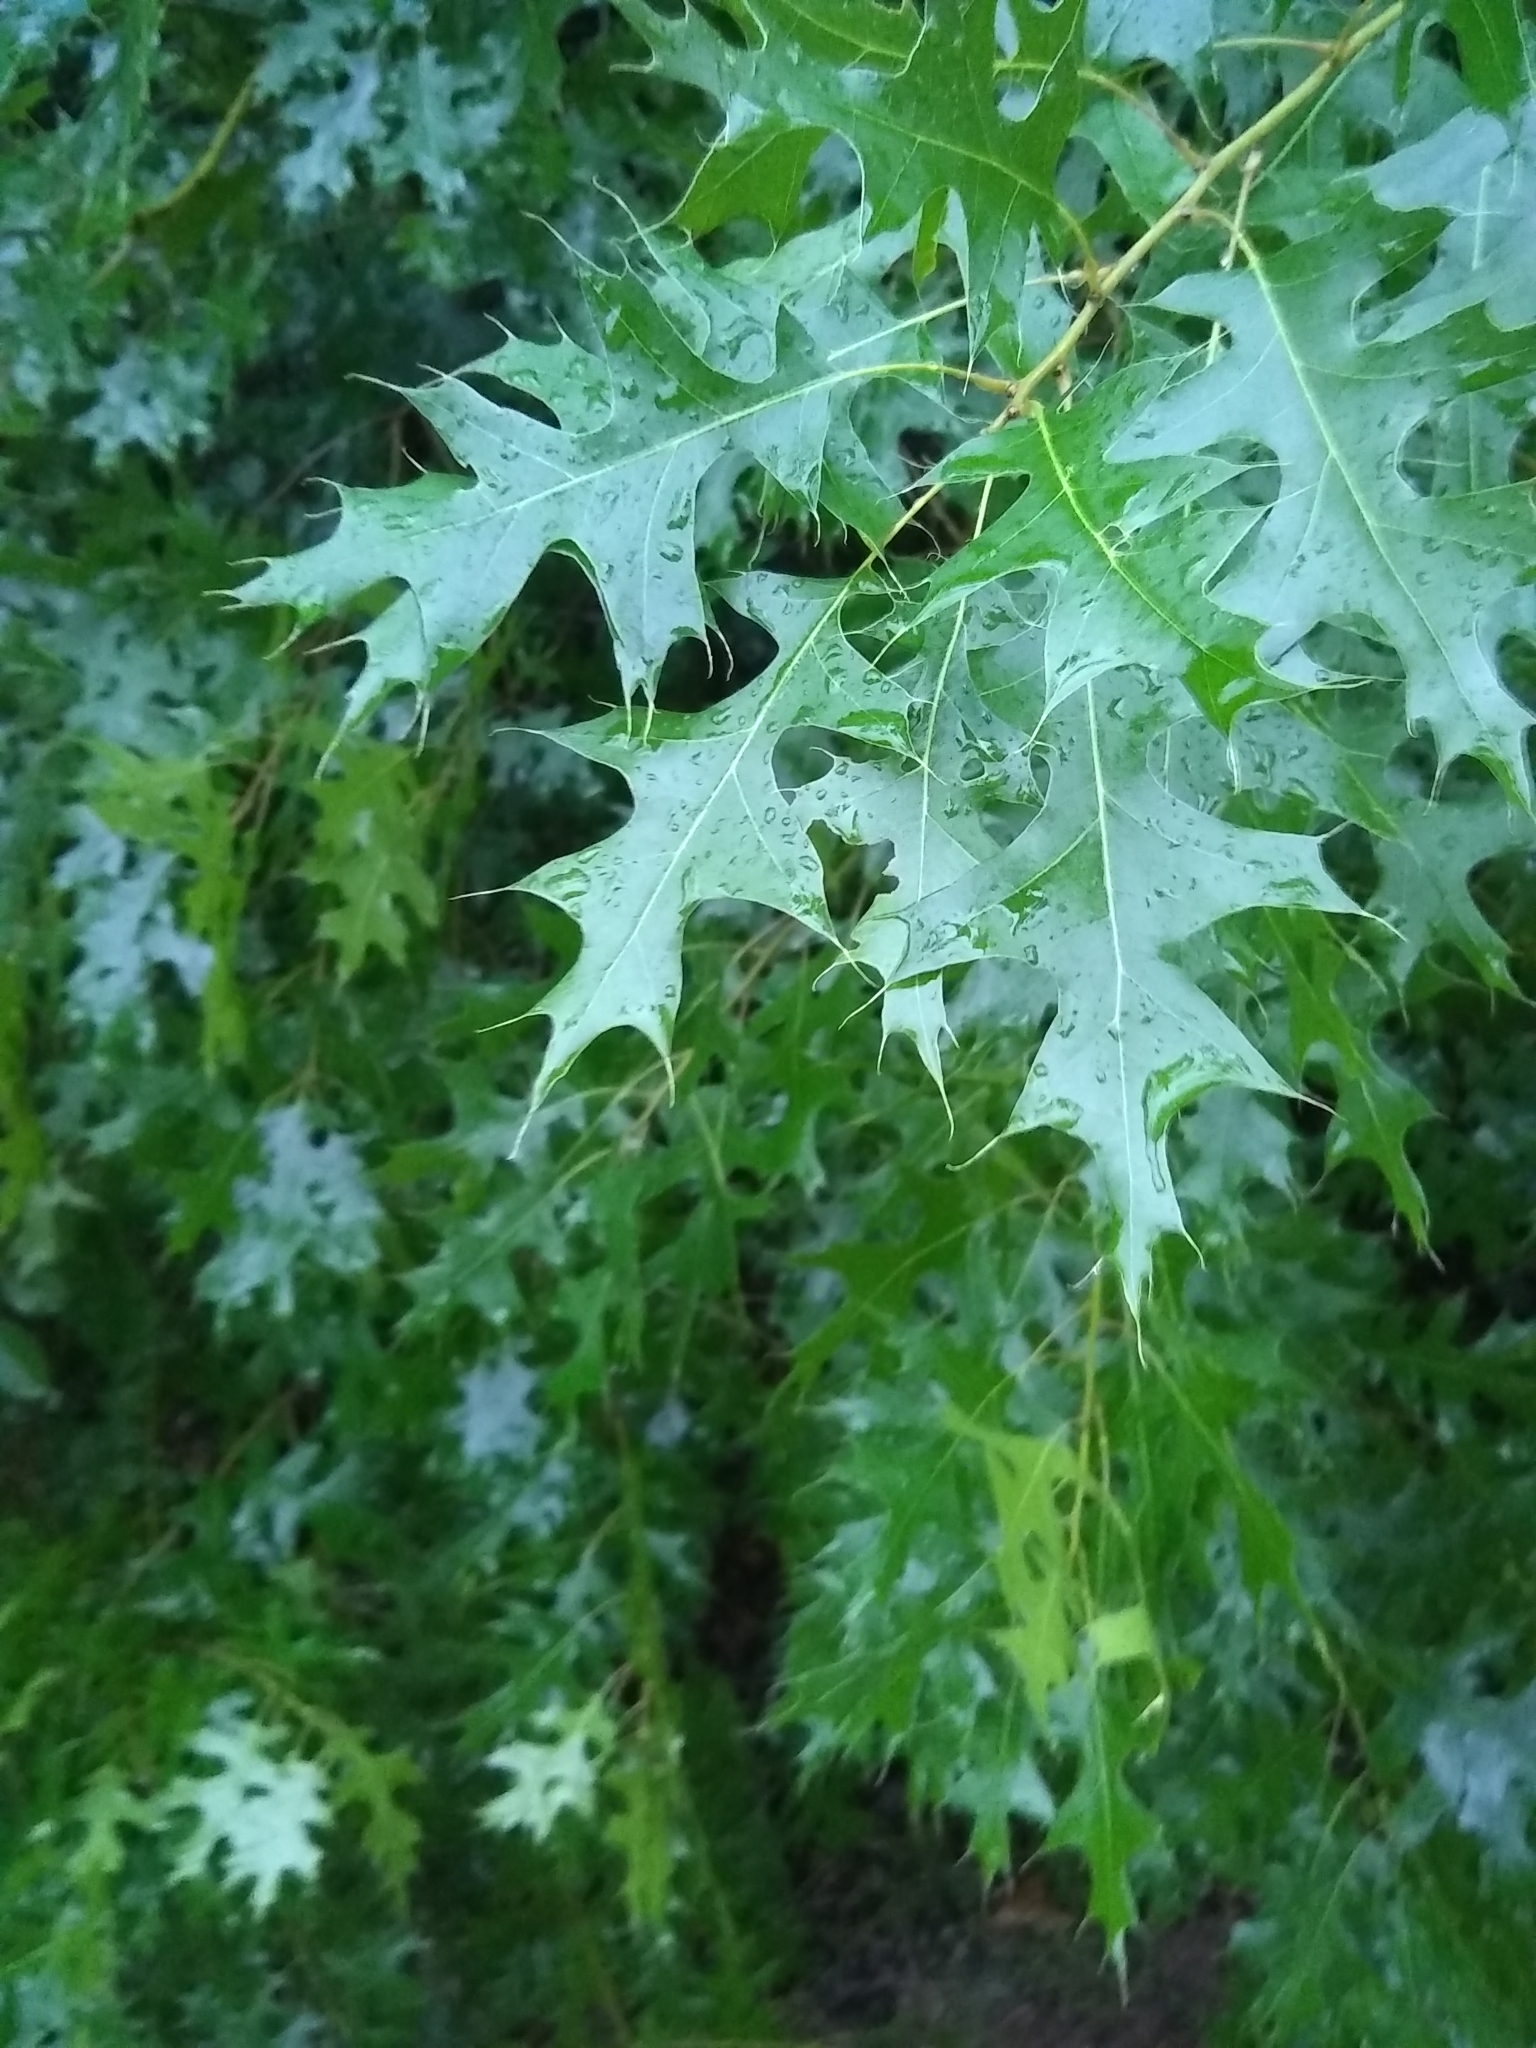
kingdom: Plantae
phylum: Tracheophyta
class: Magnoliopsida
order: Fagales
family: Fagaceae
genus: Quercus
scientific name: Quercus
